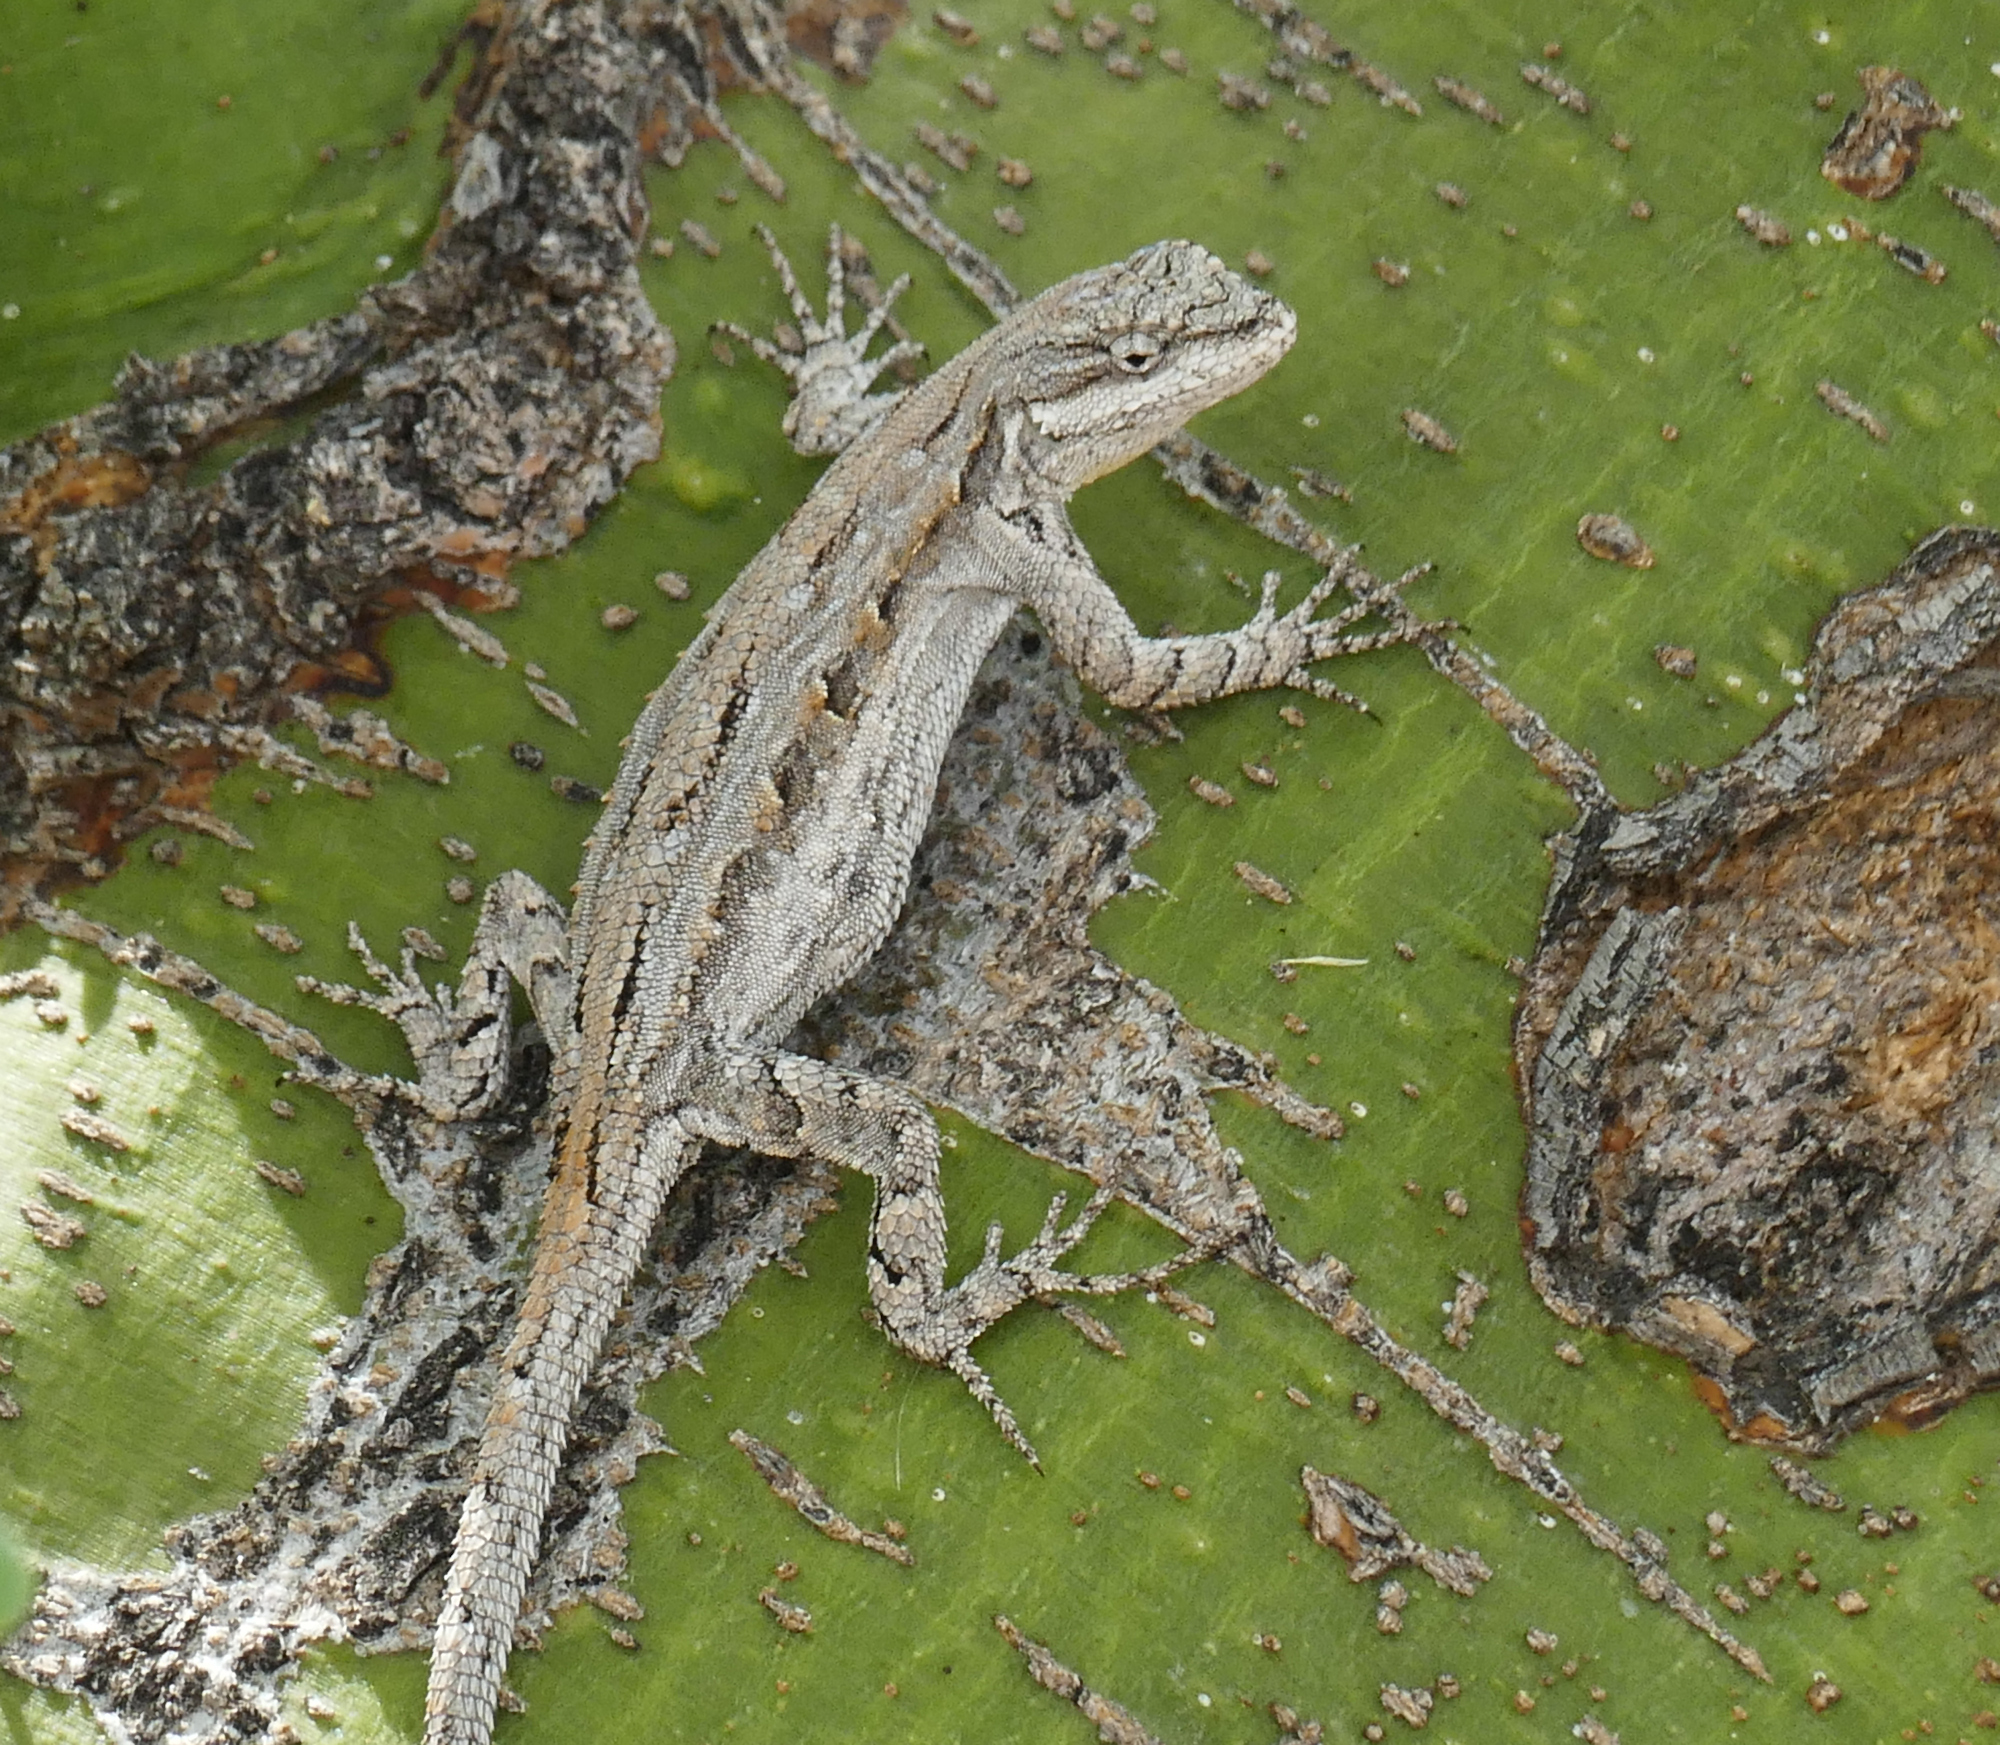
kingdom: Animalia
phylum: Chordata
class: Squamata
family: Phrynosomatidae
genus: Urosaurus
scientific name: Urosaurus ornatus
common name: Ornate tree lizard
